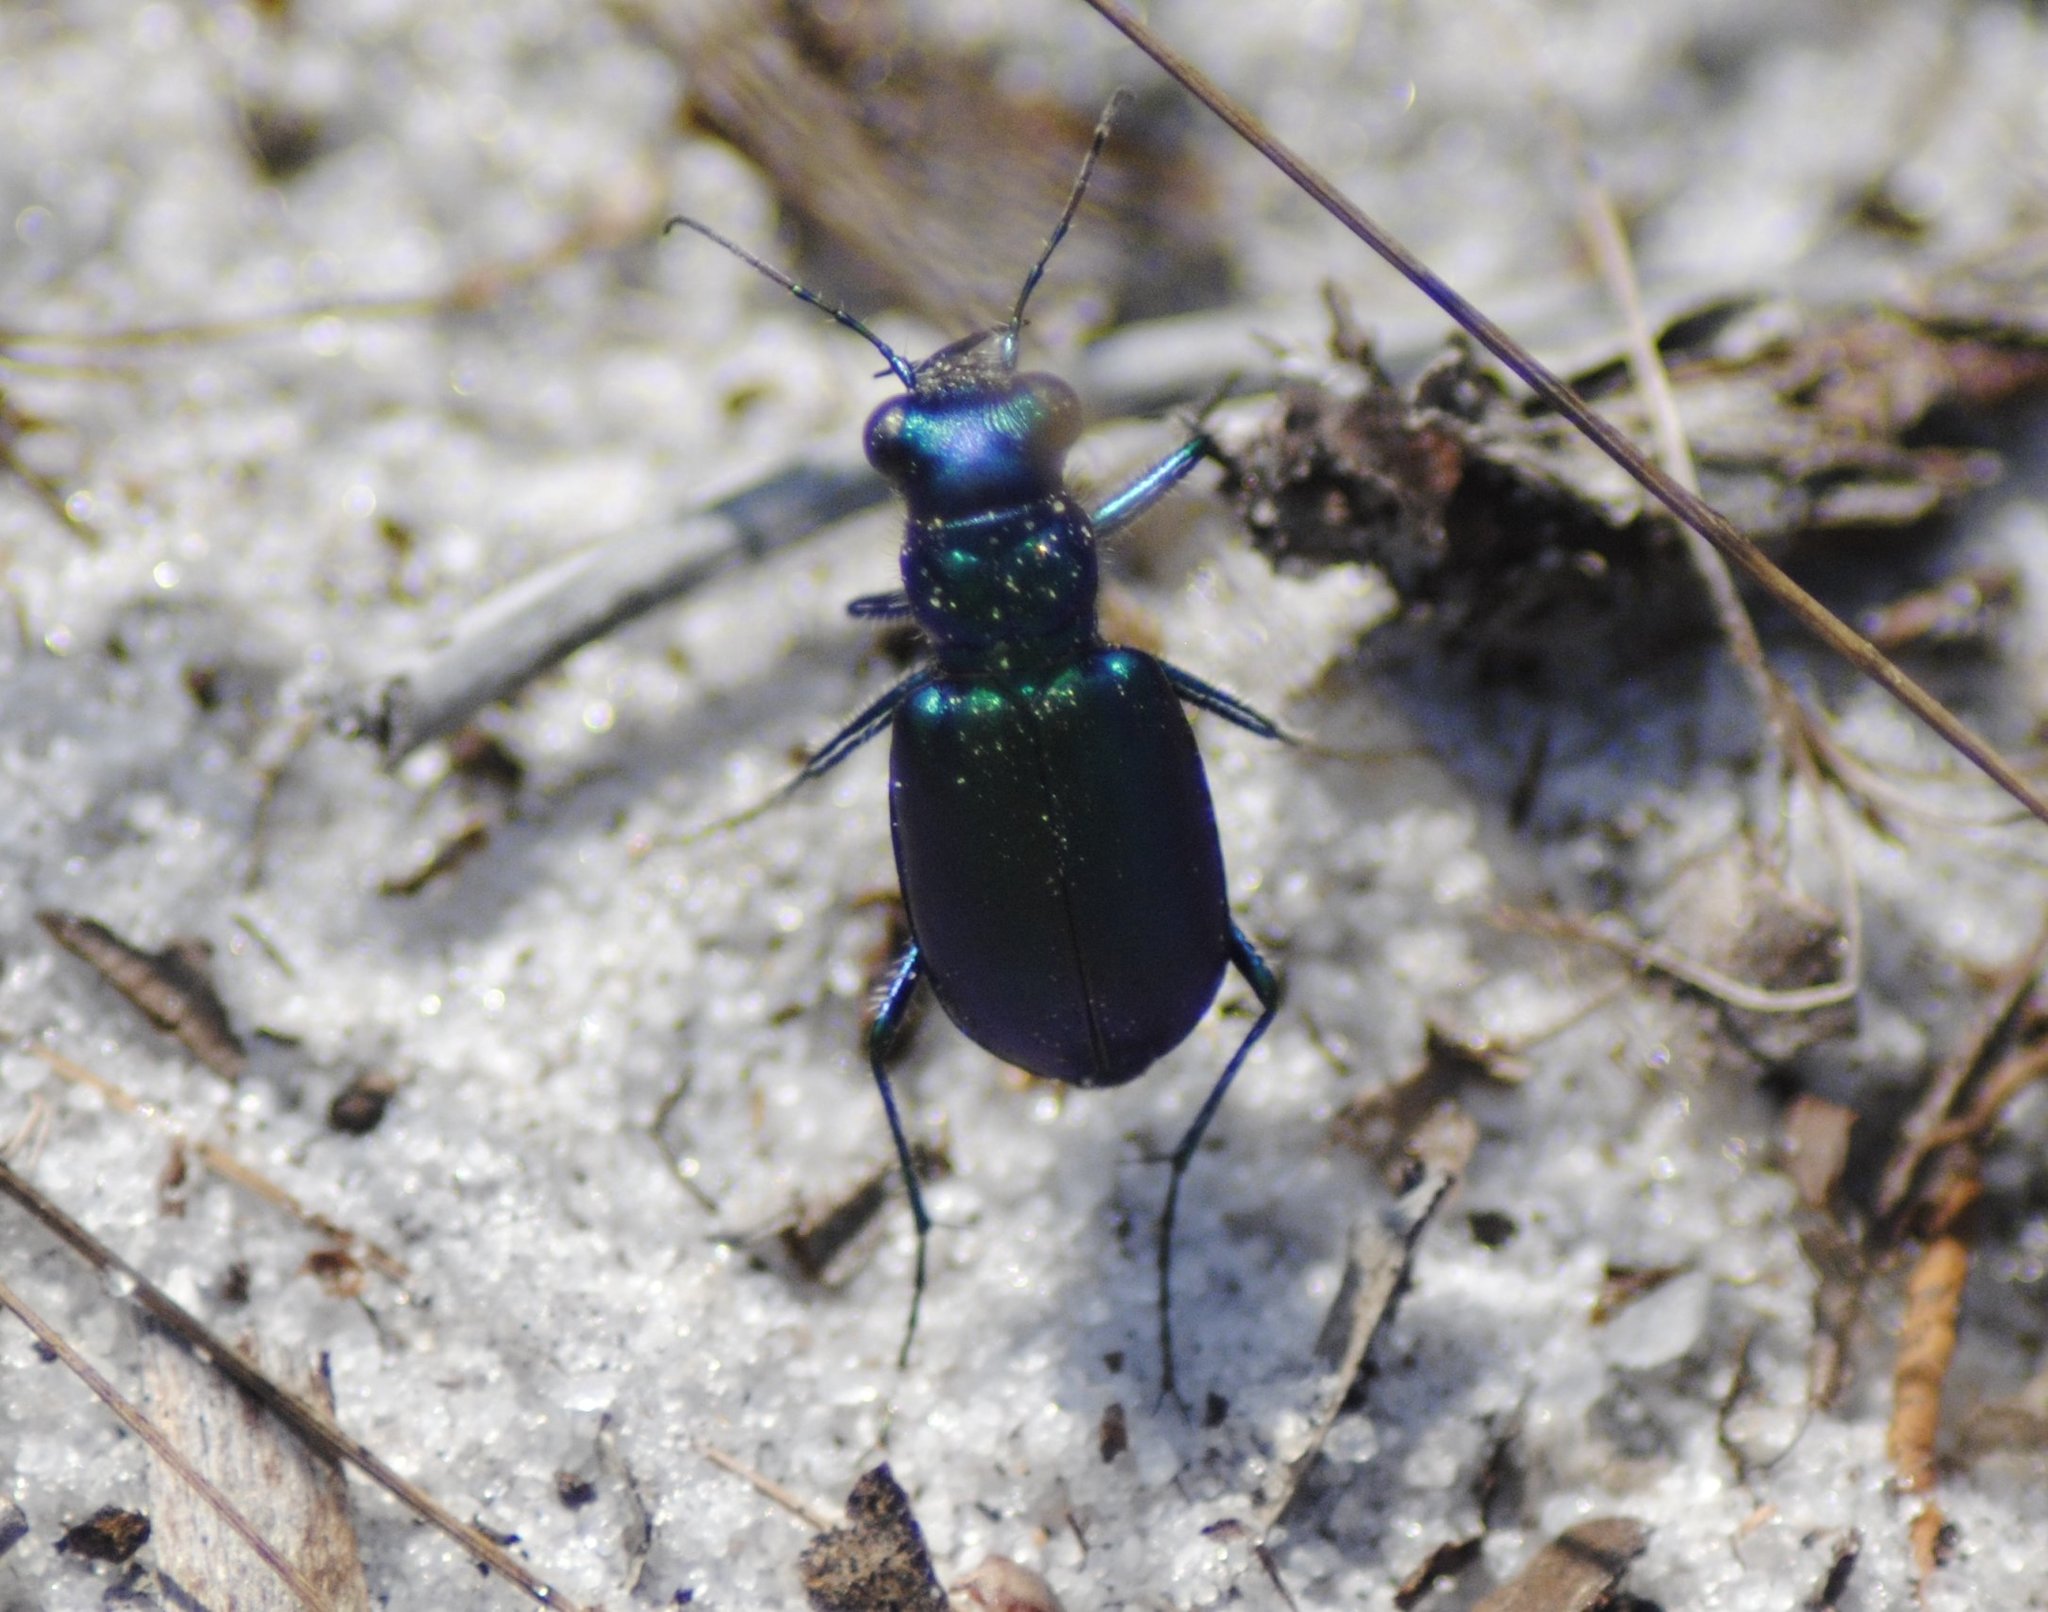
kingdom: Animalia
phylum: Arthropoda
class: Insecta
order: Coleoptera
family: Carabidae
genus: Cicindela
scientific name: Cicindela scutellaris
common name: Festive tiger beetle
